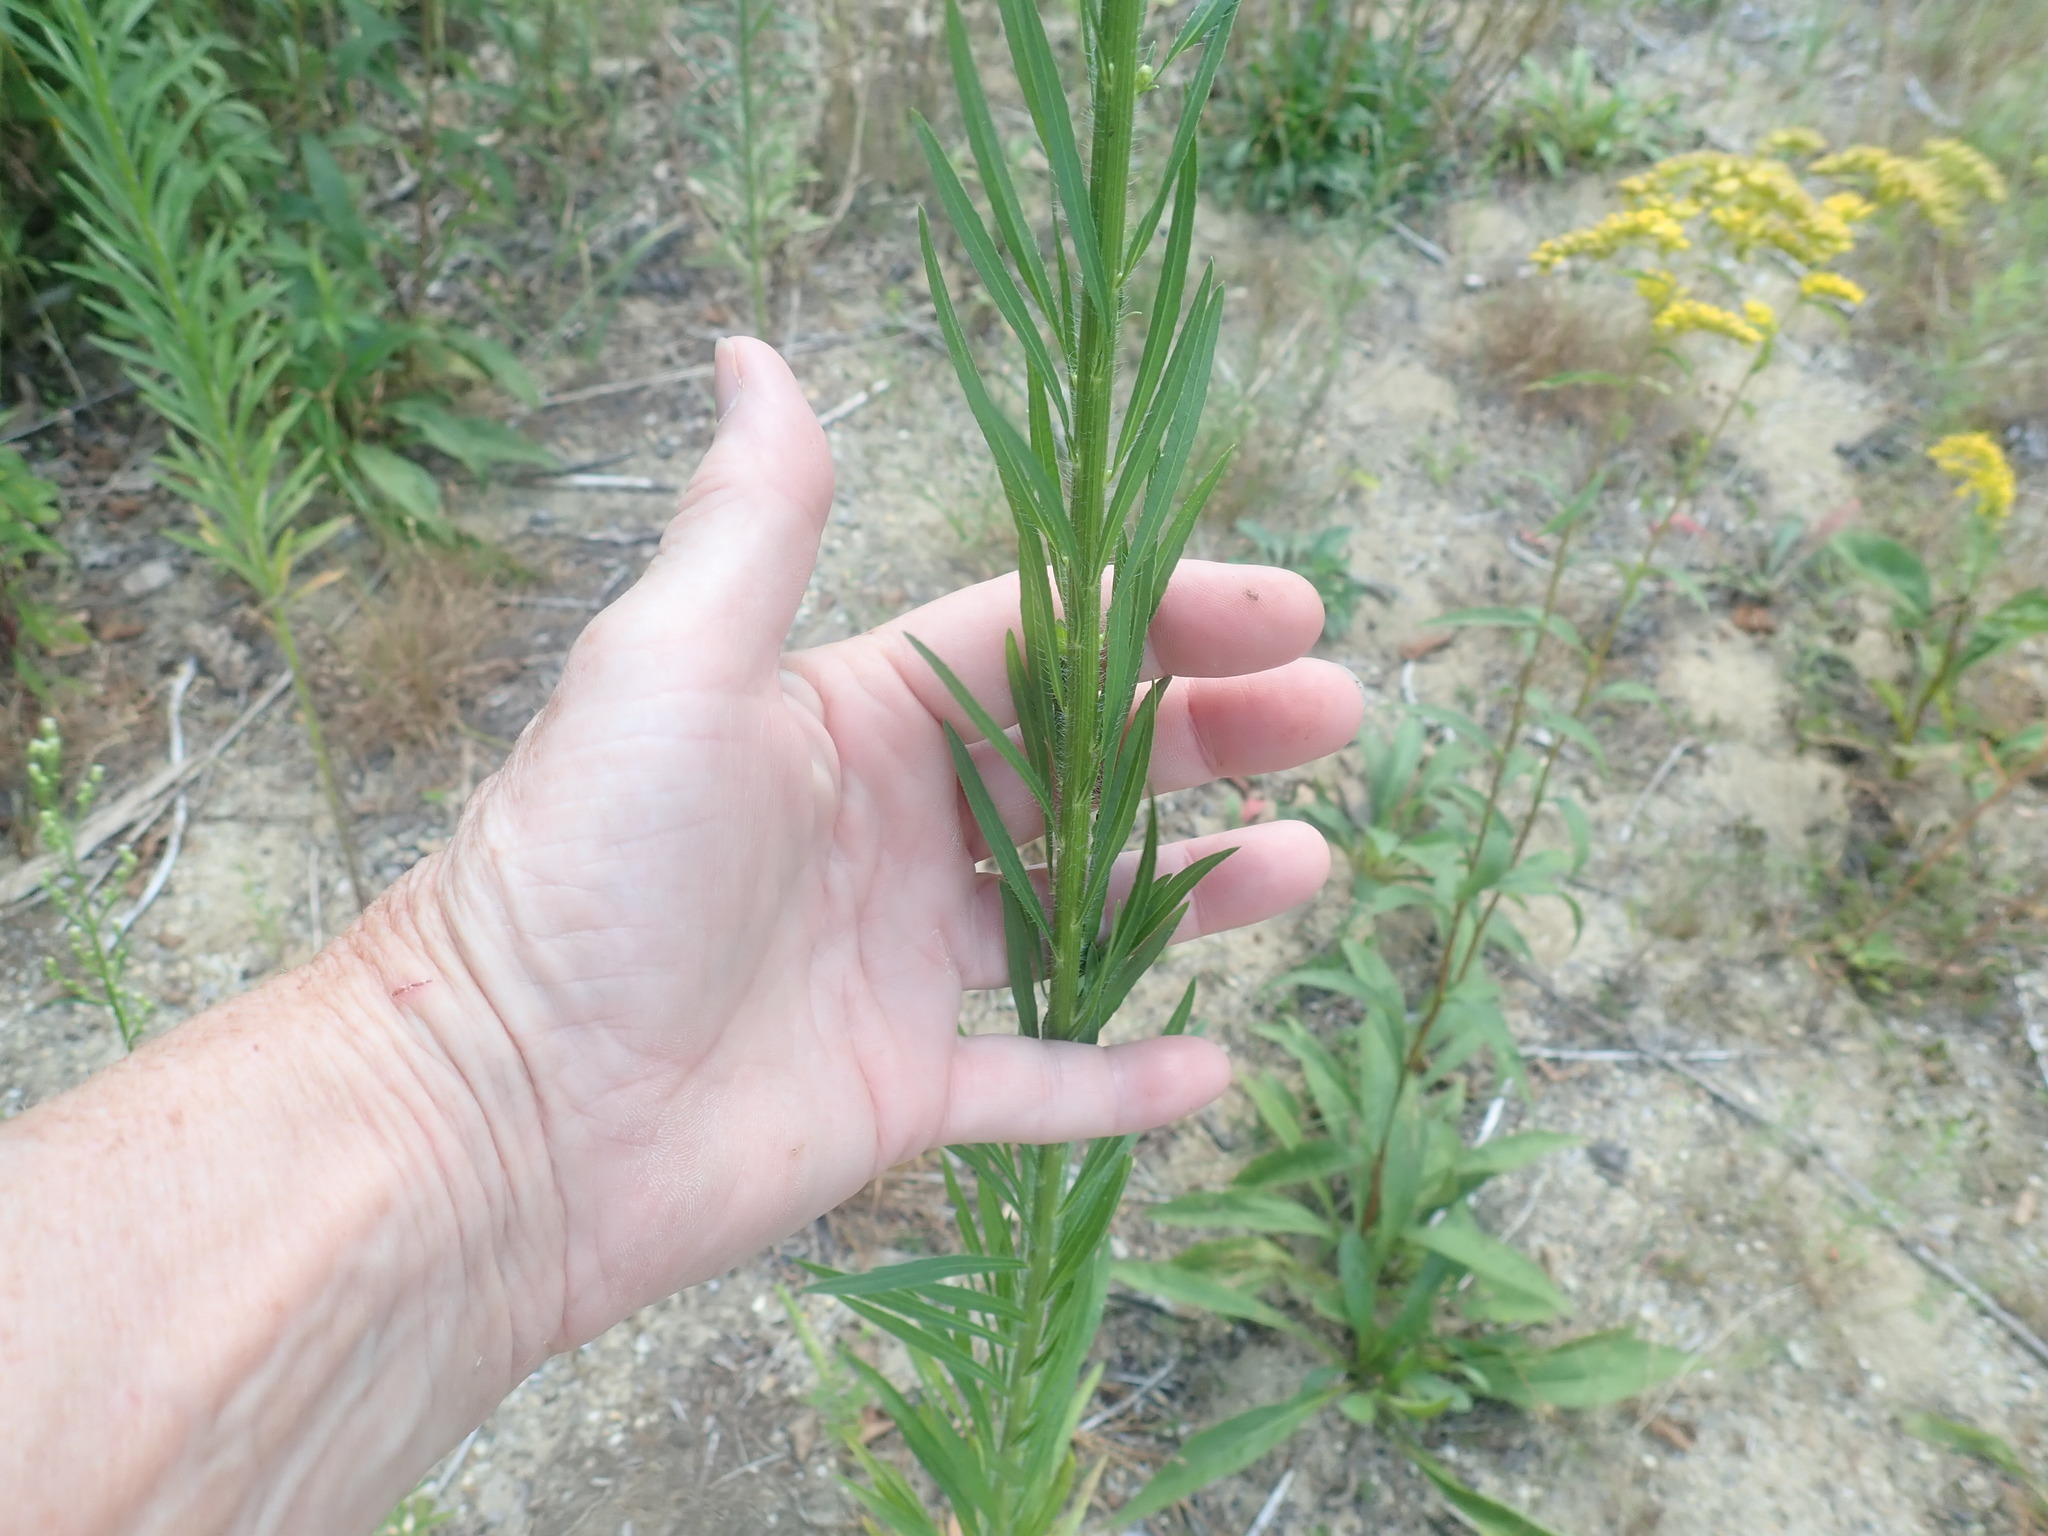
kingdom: Plantae
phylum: Tracheophyta
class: Magnoliopsida
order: Asterales
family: Asteraceae
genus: Erigeron
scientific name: Erigeron canadensis
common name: Canadian fleabane
